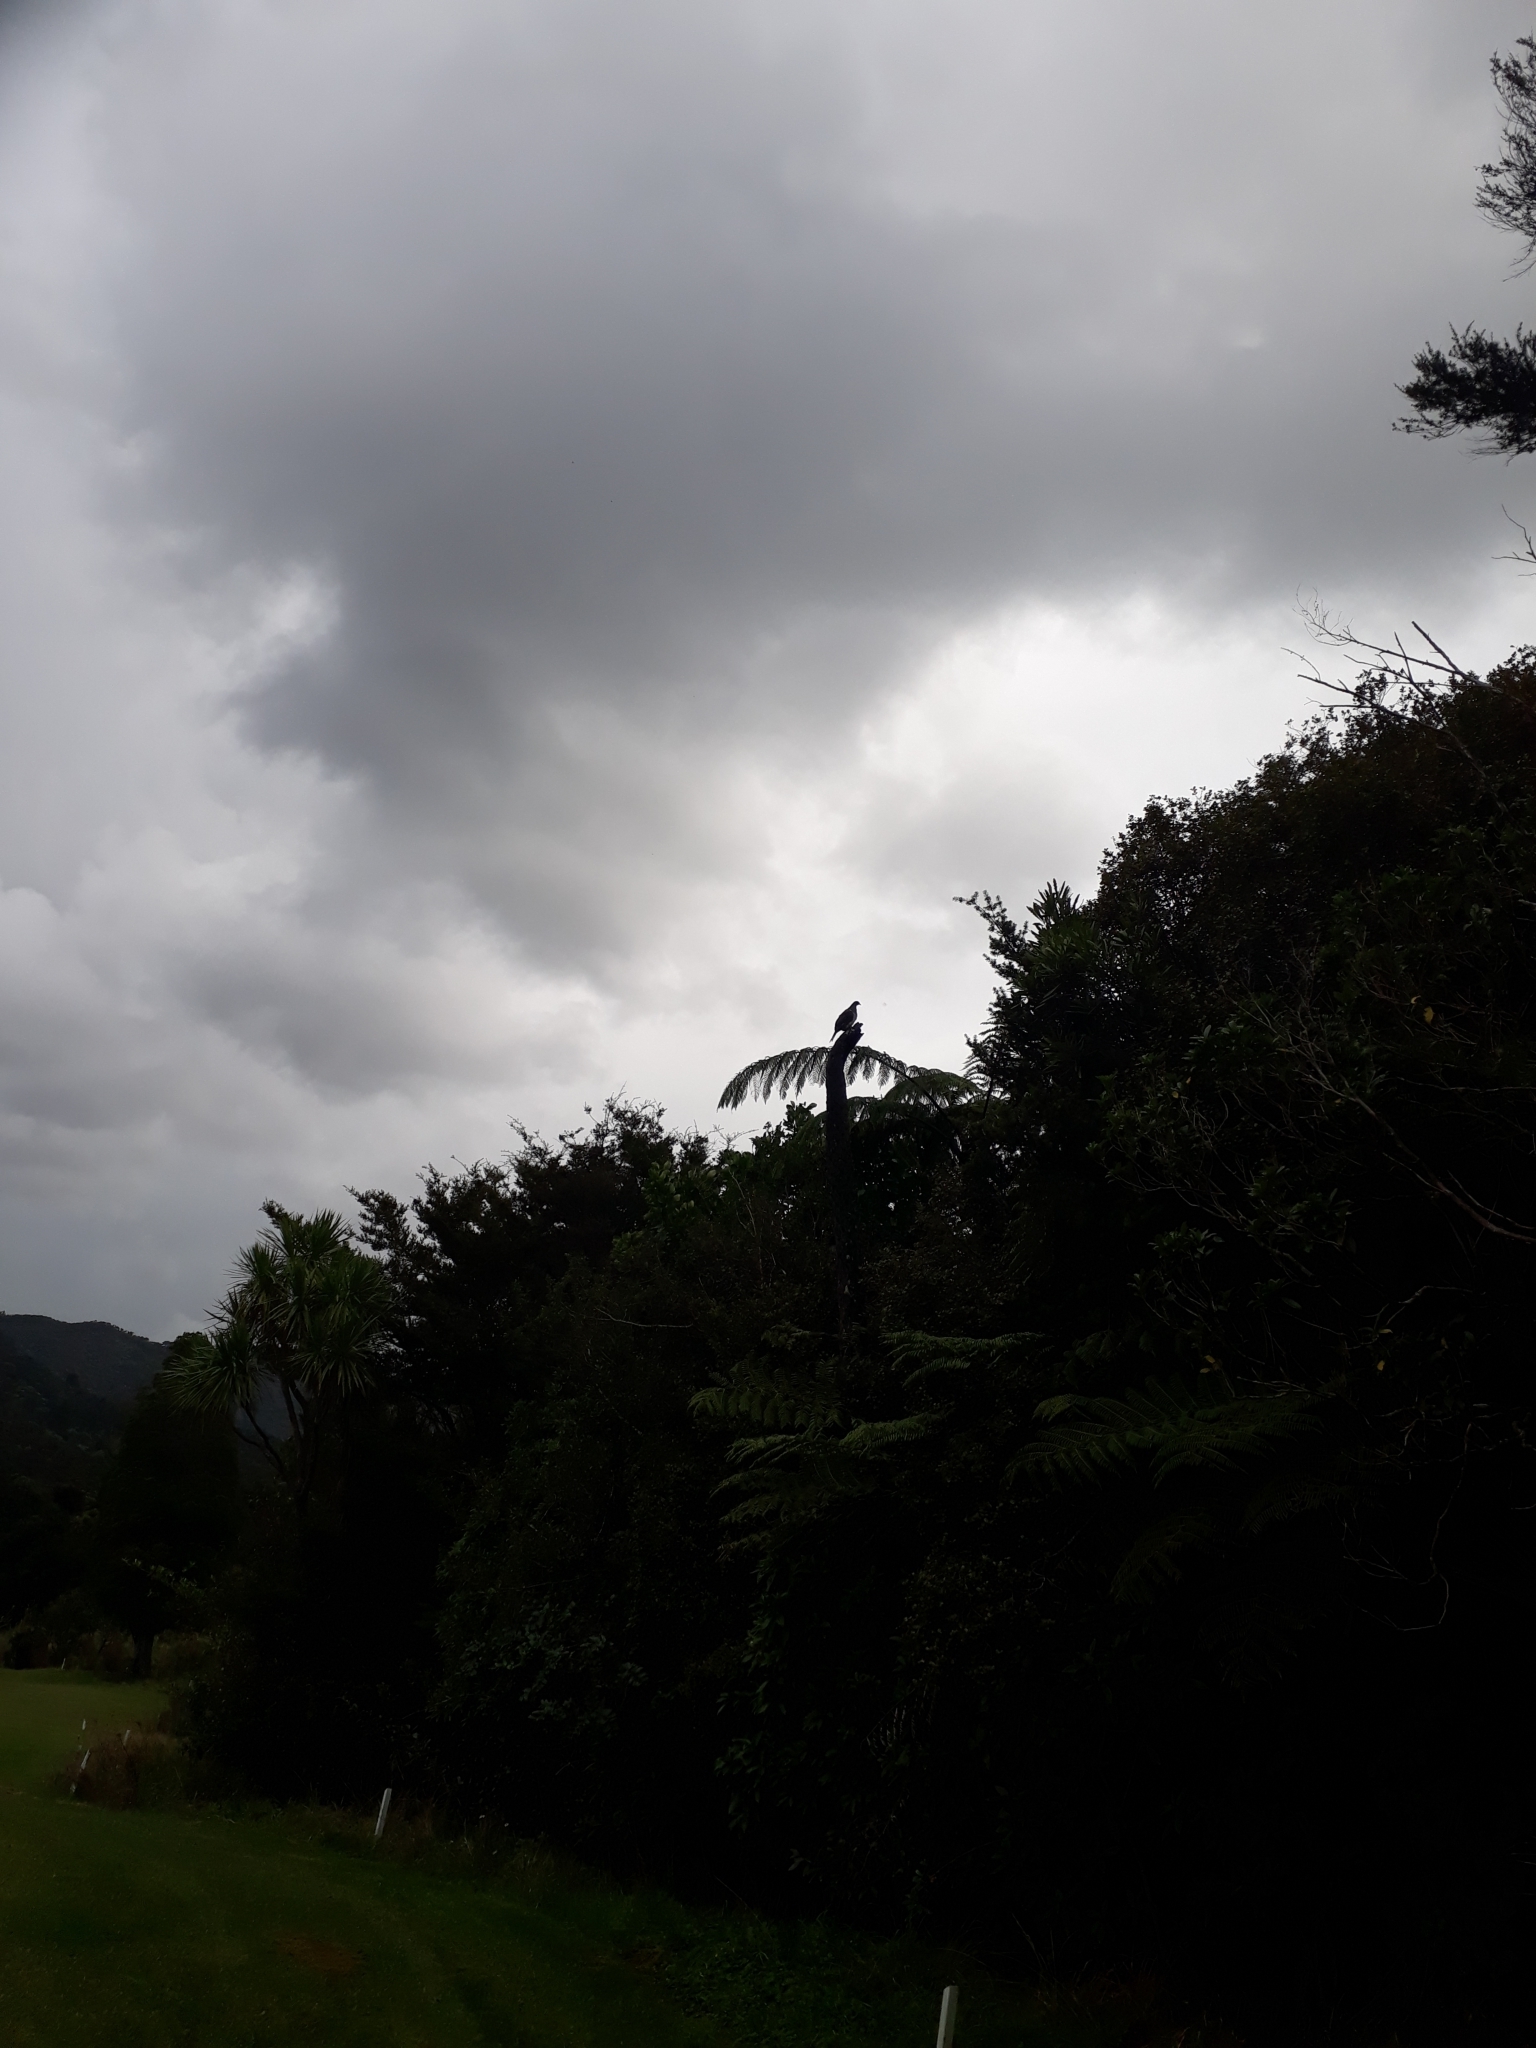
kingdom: Animalia
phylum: Chordata
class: Aves
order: Columbiformes
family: Columbidae
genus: Hemiphaga
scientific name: Hemiphaga novaeseelandiae
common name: New zealand pigeon
